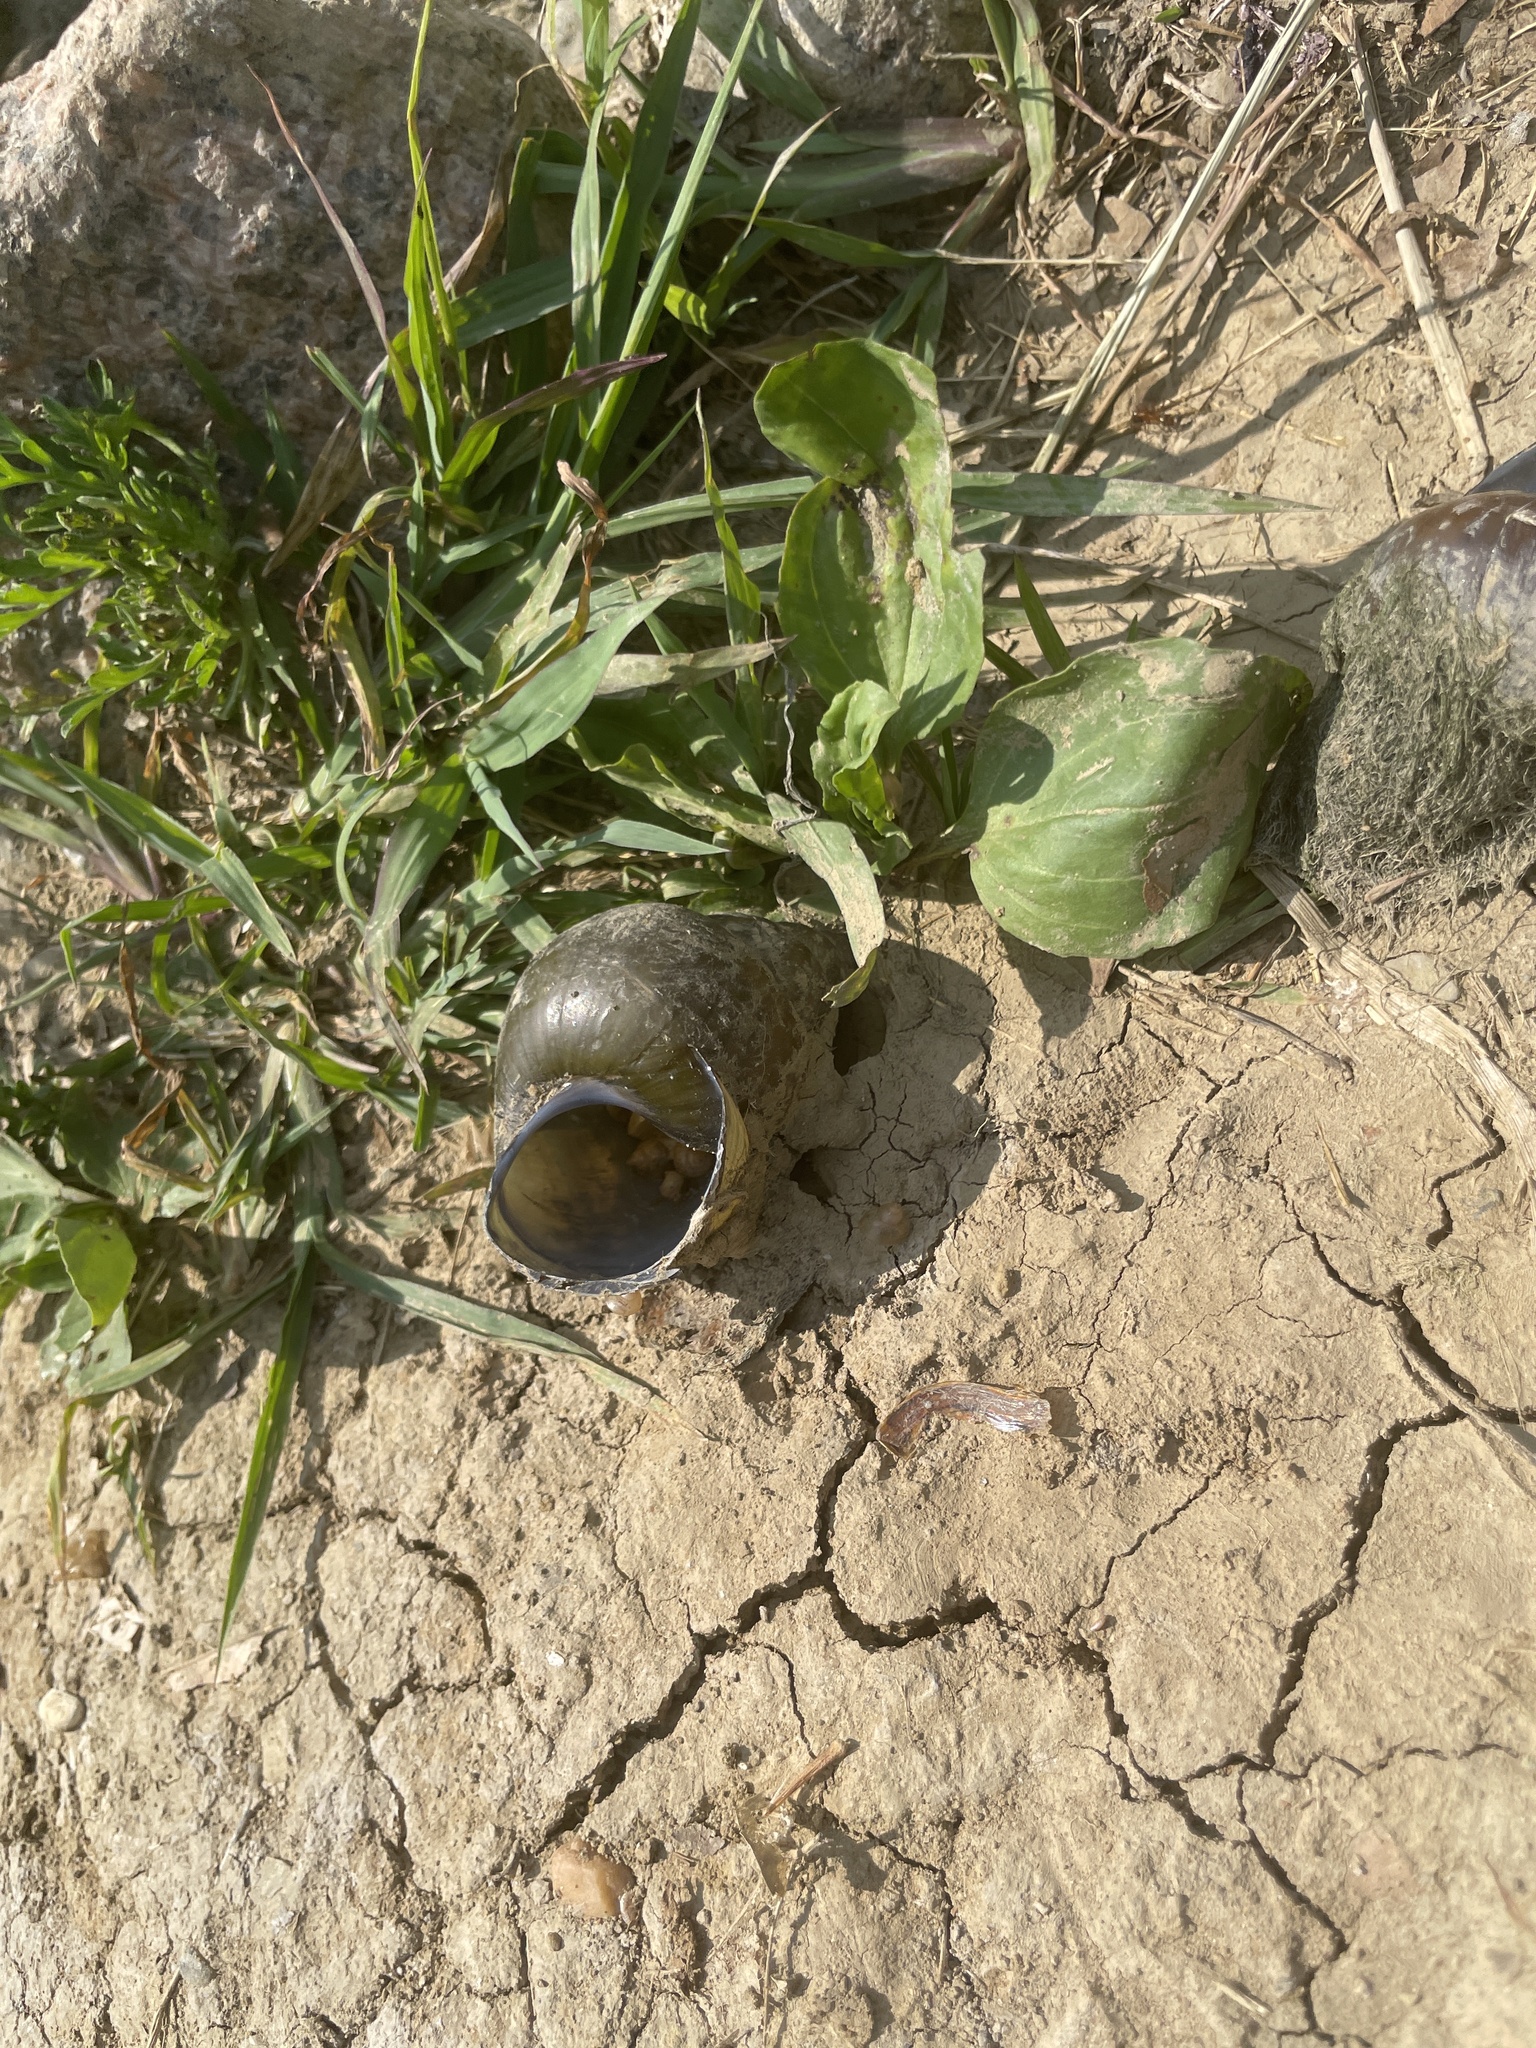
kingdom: Animalia
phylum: Mollusca
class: Gastropoda
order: Architaenioglossa
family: Viviparidae
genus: Cipangopaludina
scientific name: Cipangopaludina chinensis
